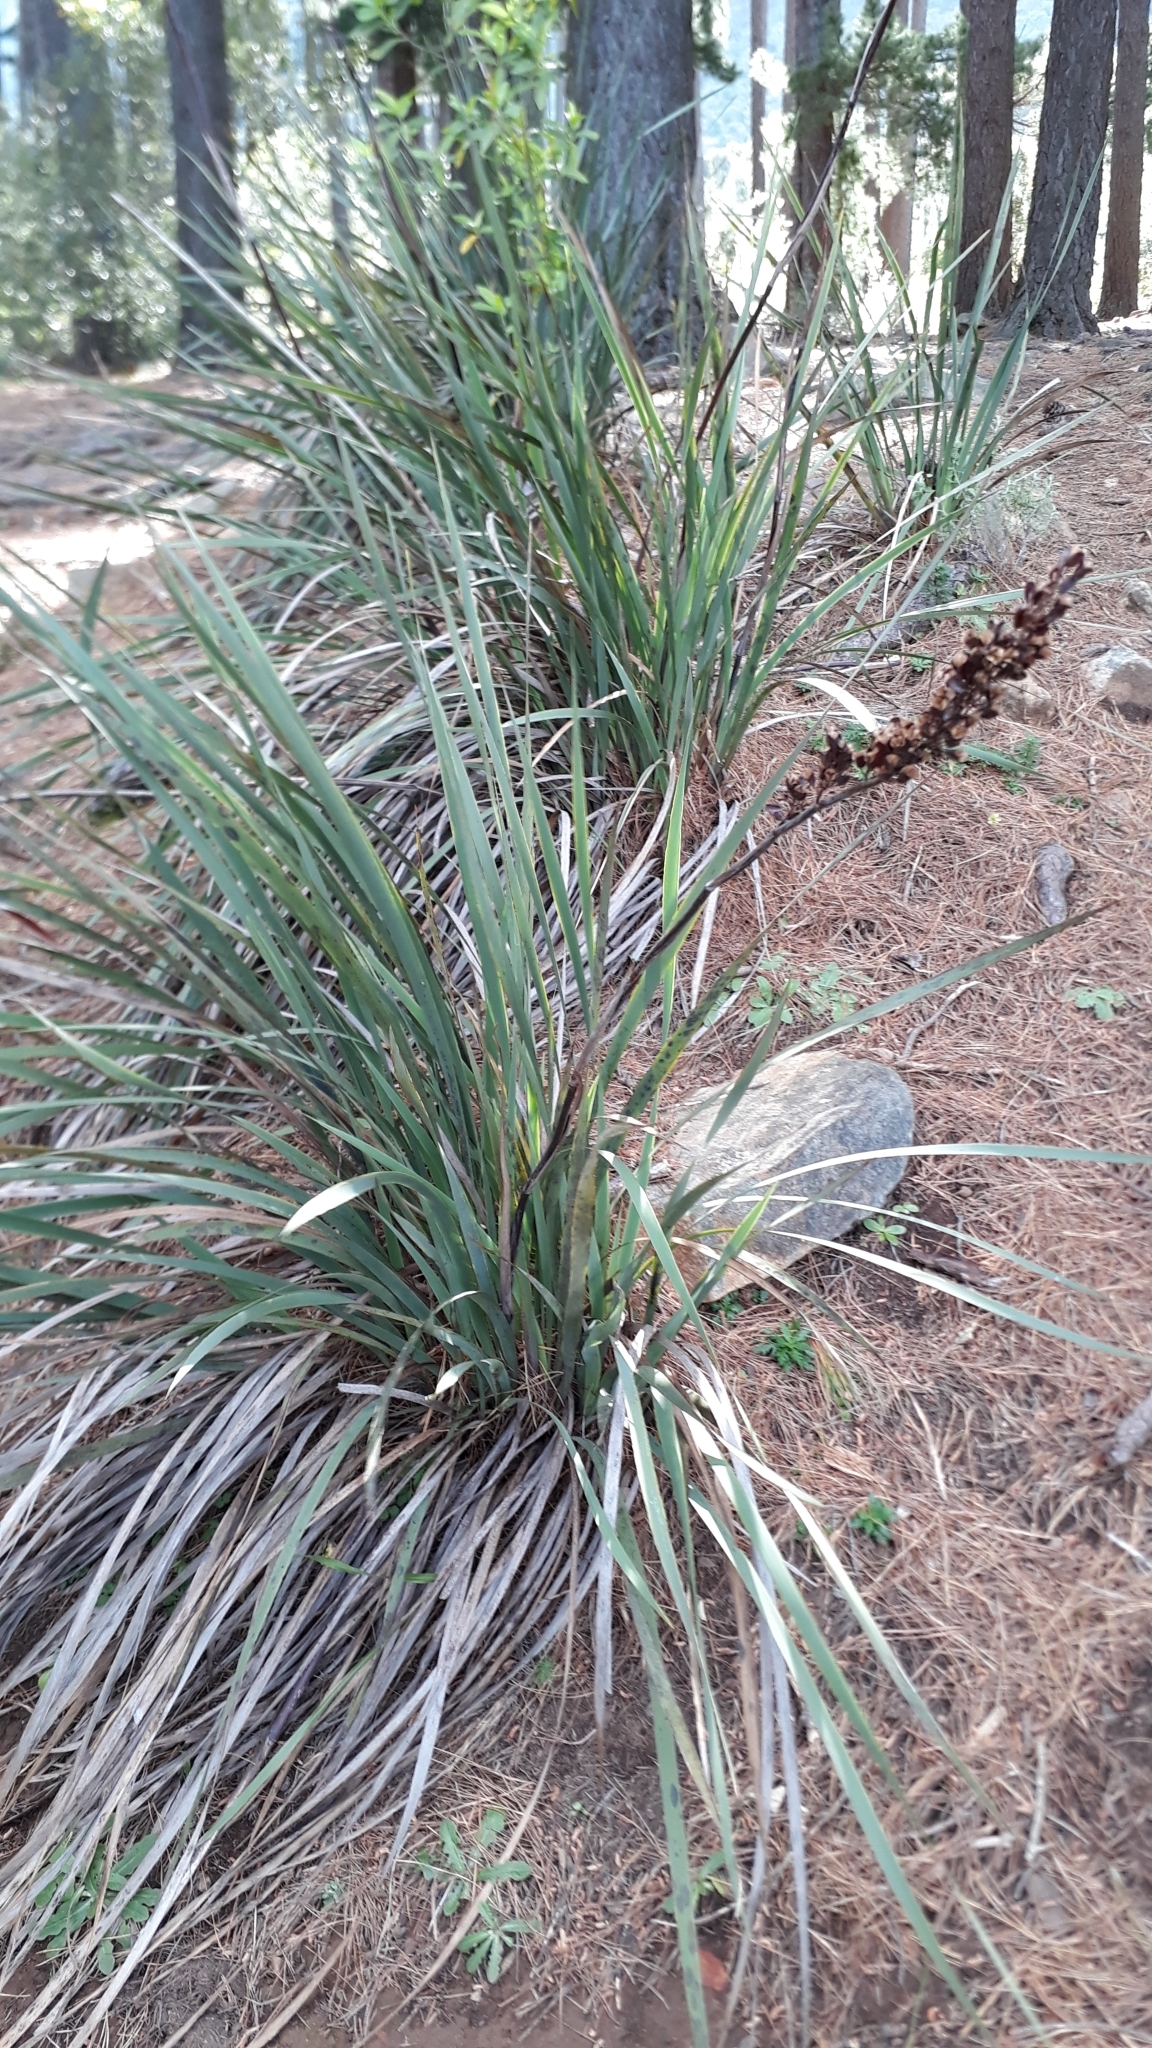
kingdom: Plantae
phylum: Tracheophyta
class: Liliopsida
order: Asparagales
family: Iridaceae
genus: Aristea
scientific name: Aristea capitata
